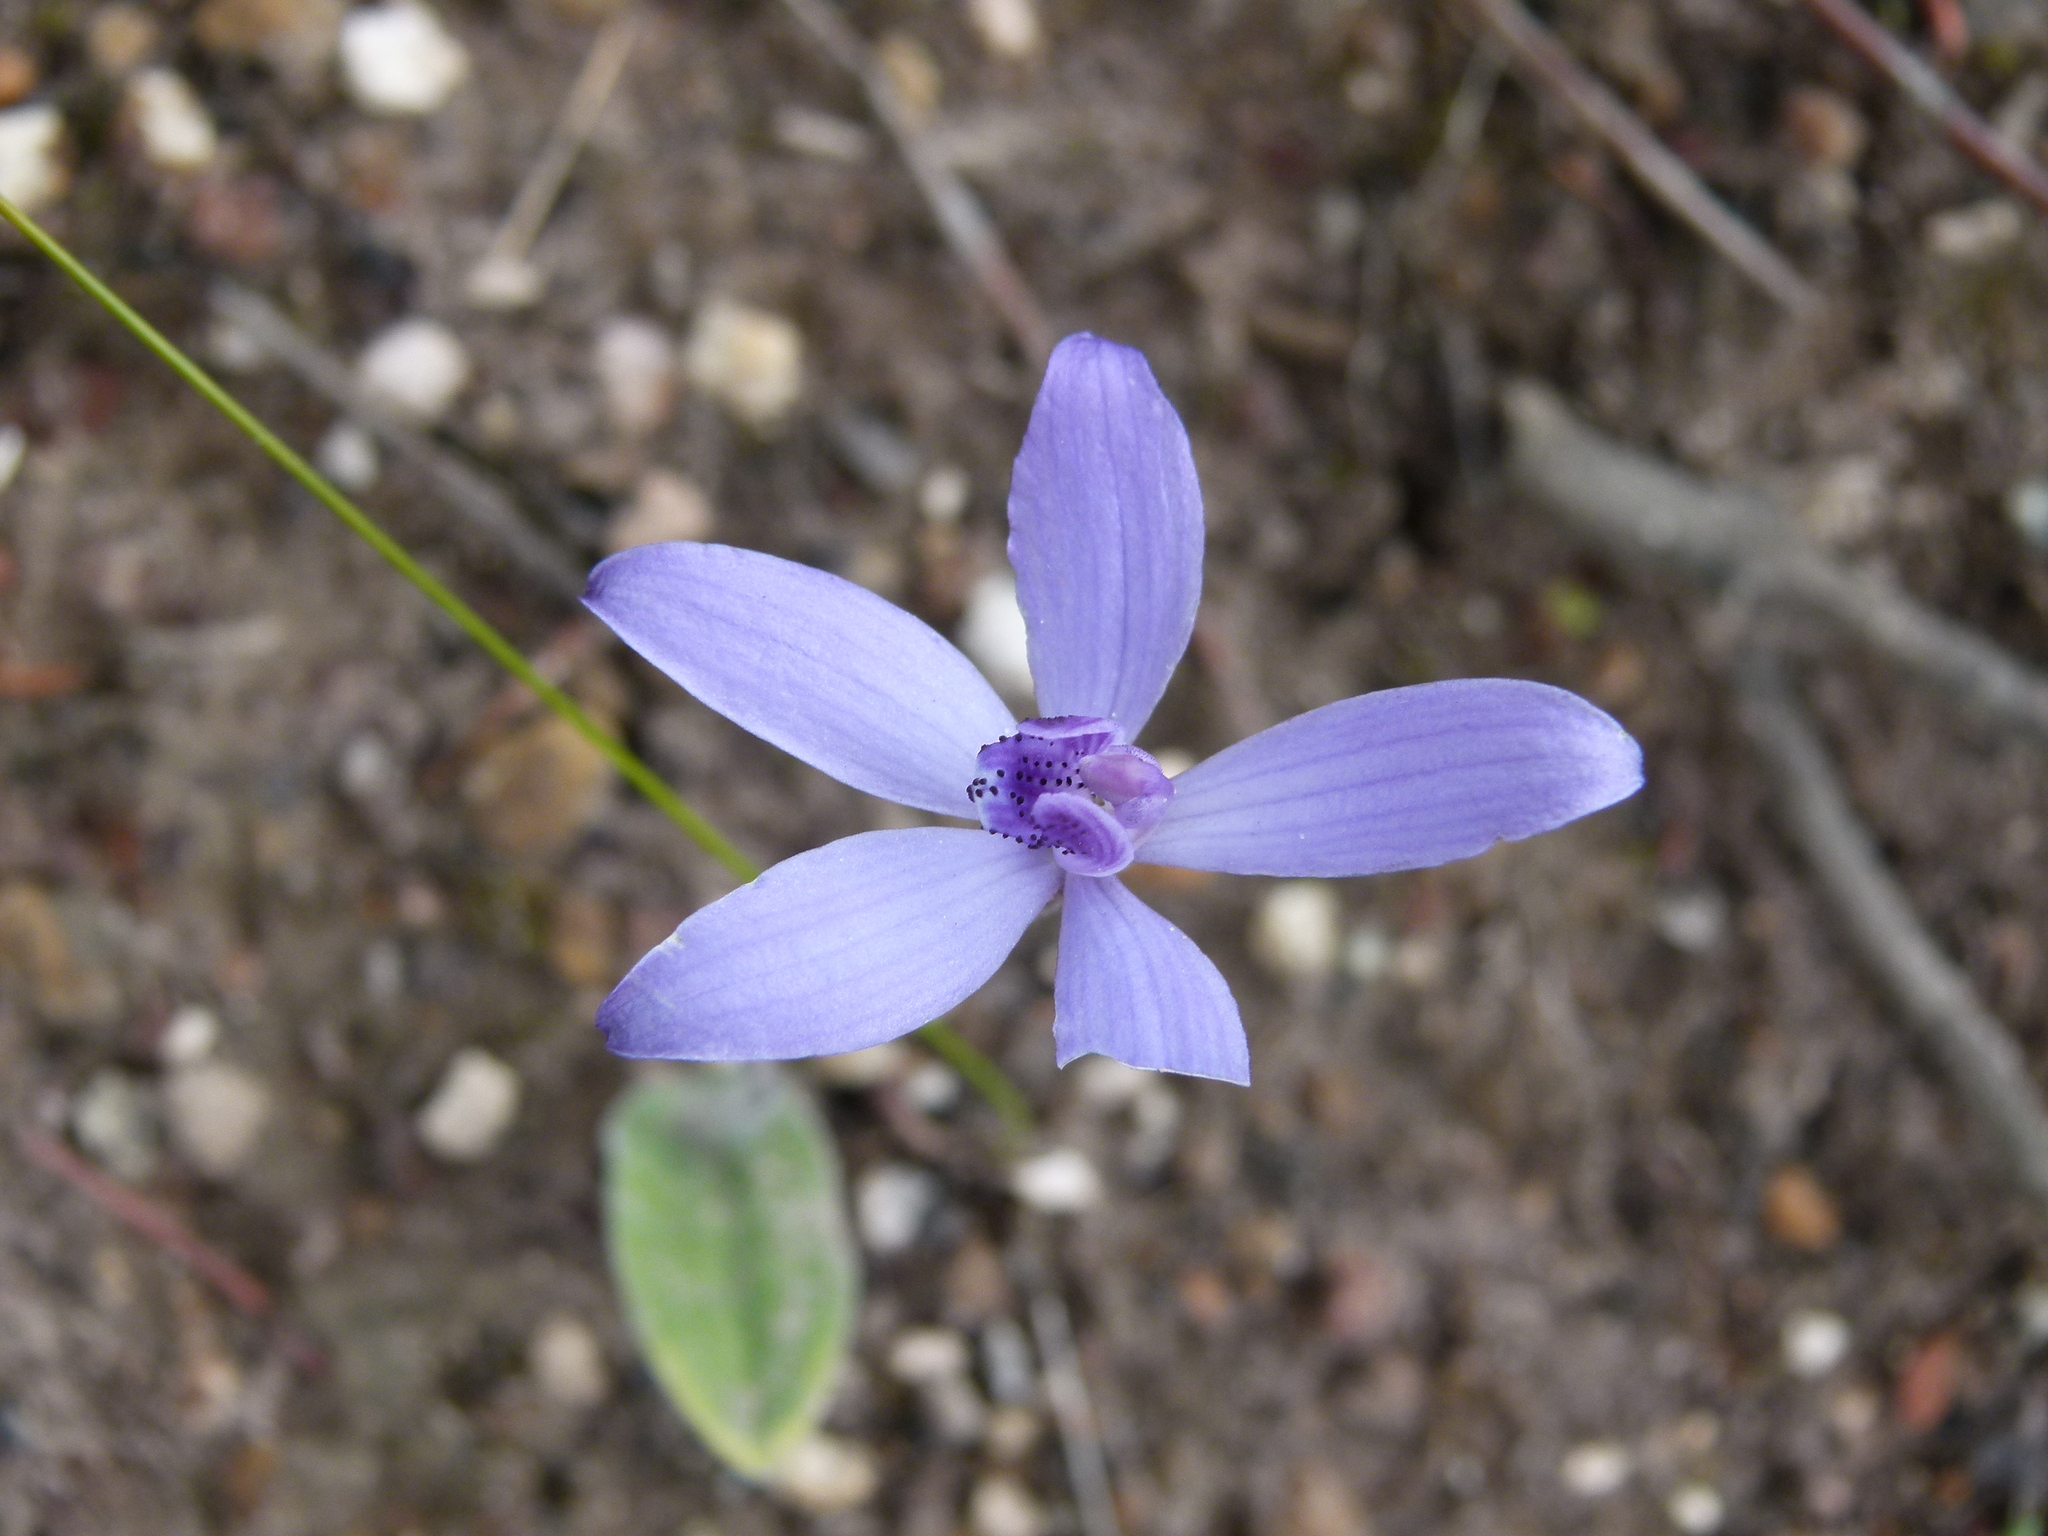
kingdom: Plantae
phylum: Tracheophyta
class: Liliopsida
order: Asparagales
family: Orchidaceae
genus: Caladenia
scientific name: Caladenia sericea
